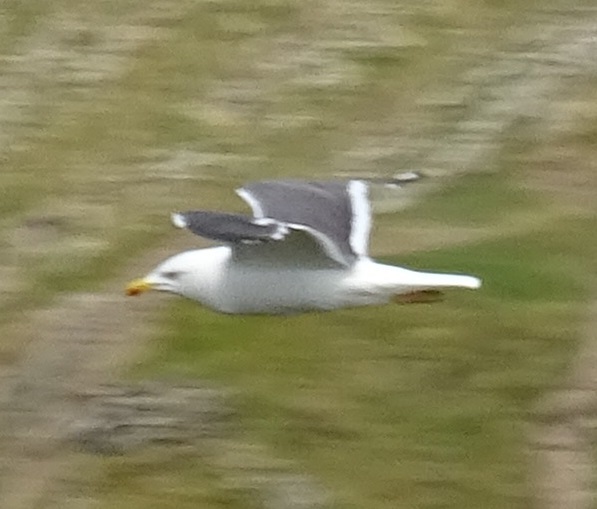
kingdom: Animalia
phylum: Chordata
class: Aves
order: Charadriiformes
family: Laridae
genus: Larus
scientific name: Larus fuscus
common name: Lesser black-backed gull
